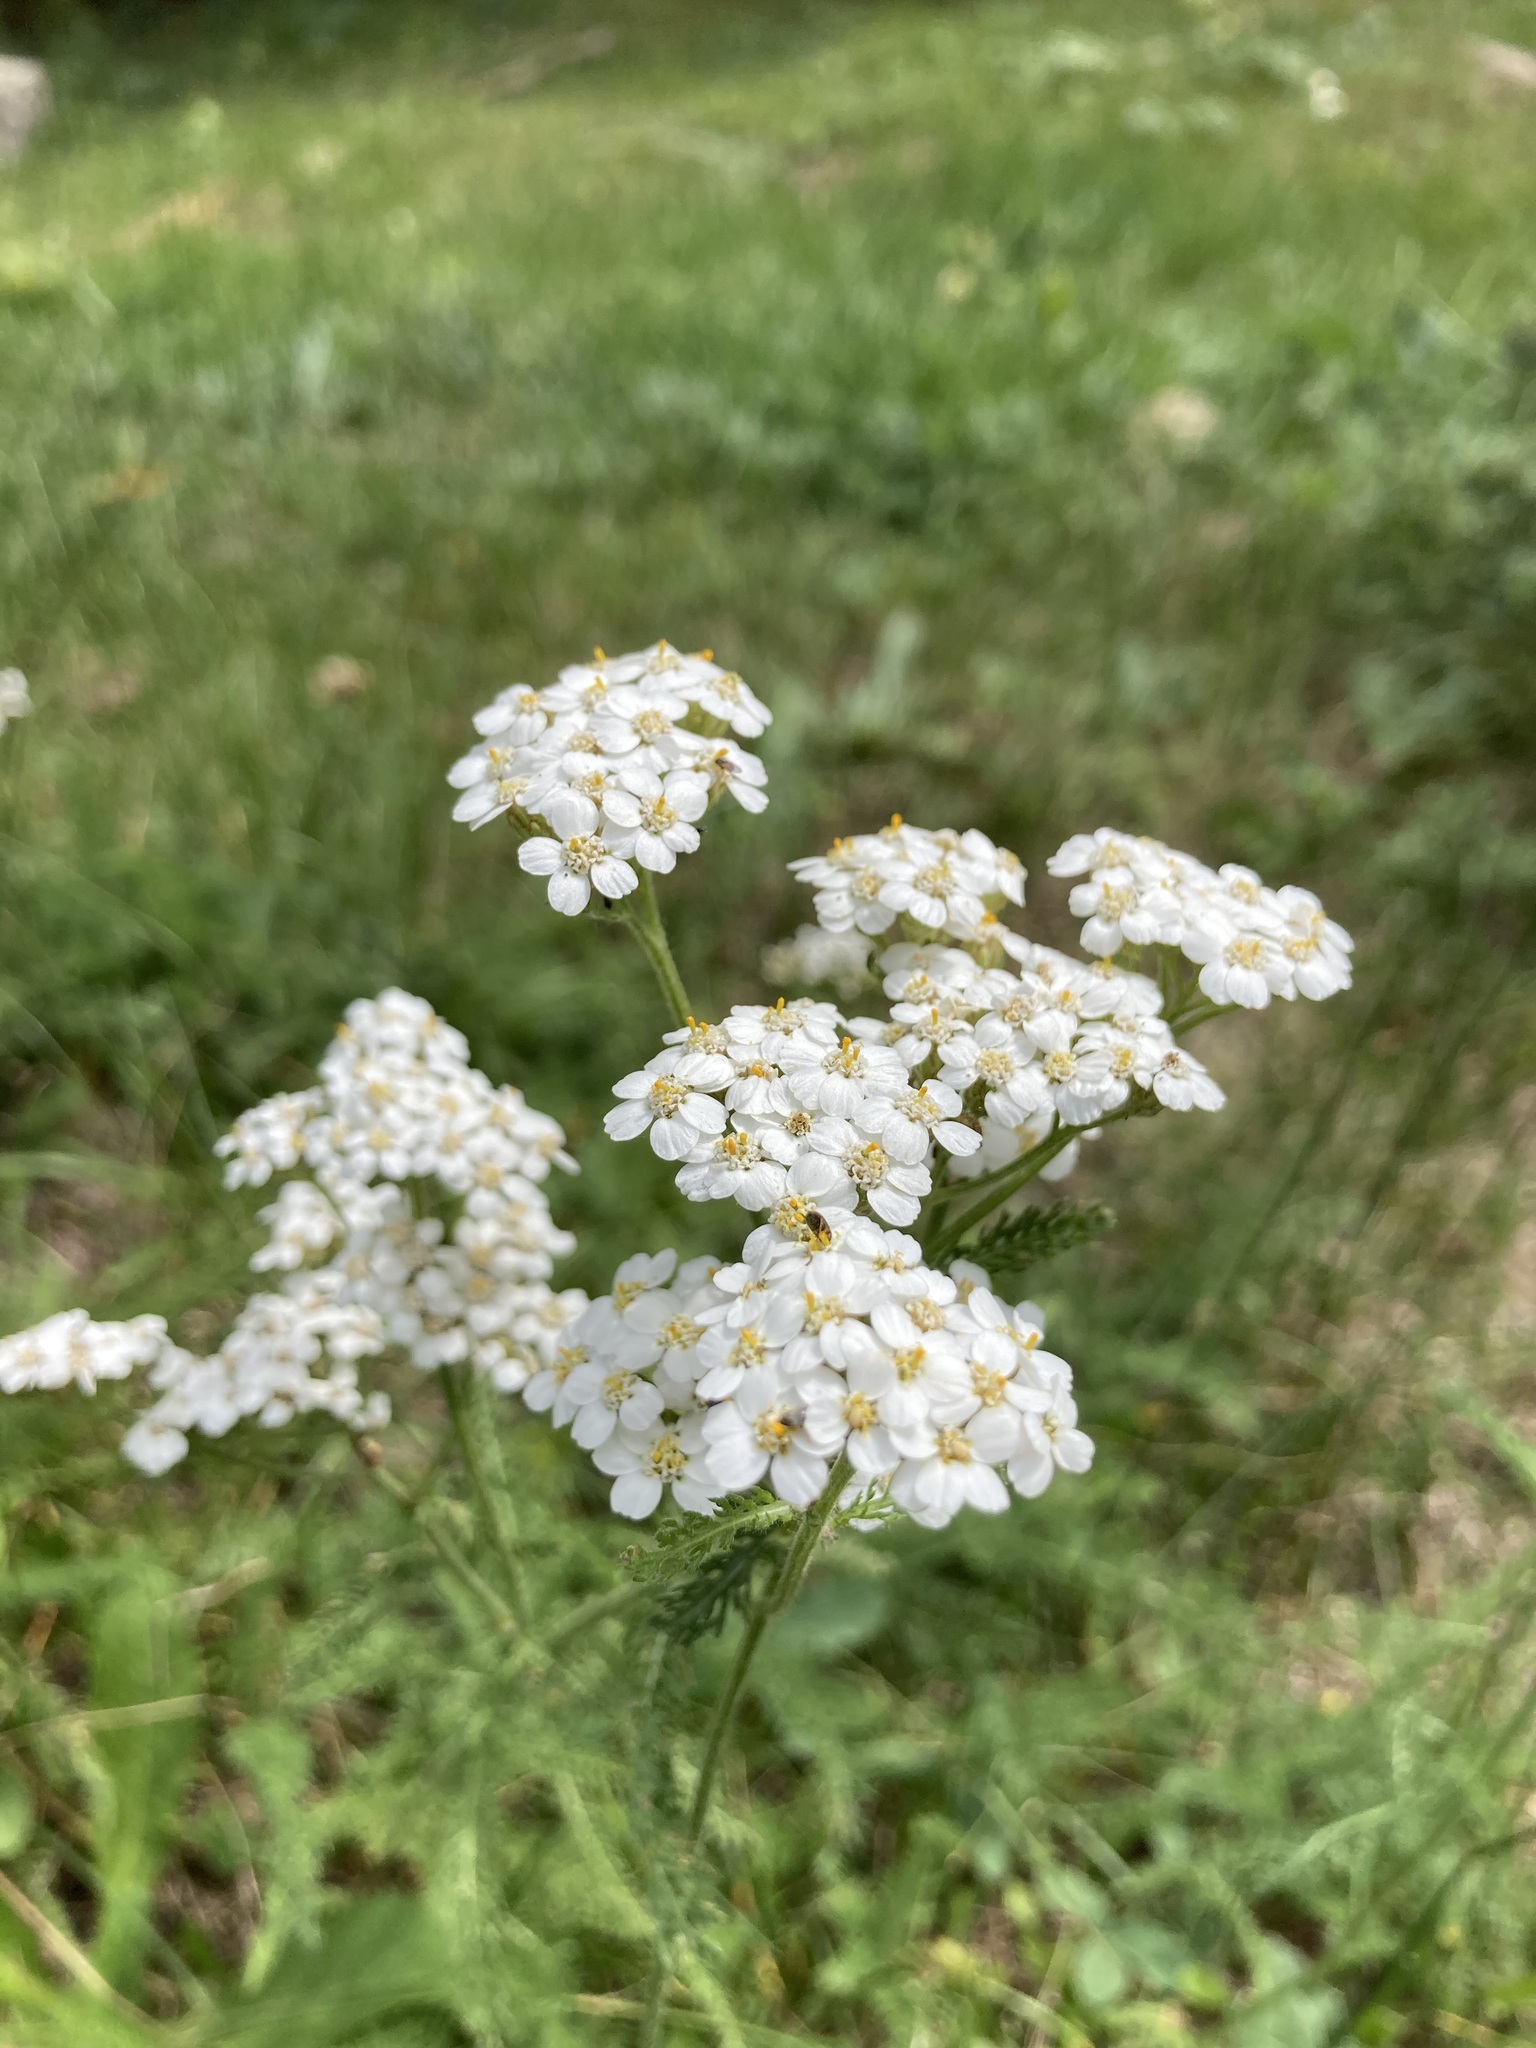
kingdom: Plantae
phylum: Tracheophyta
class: Magnoliopsida
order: Asterales
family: Asteraceae
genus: Achillea
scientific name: Achillea millefolium
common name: Yarrow
